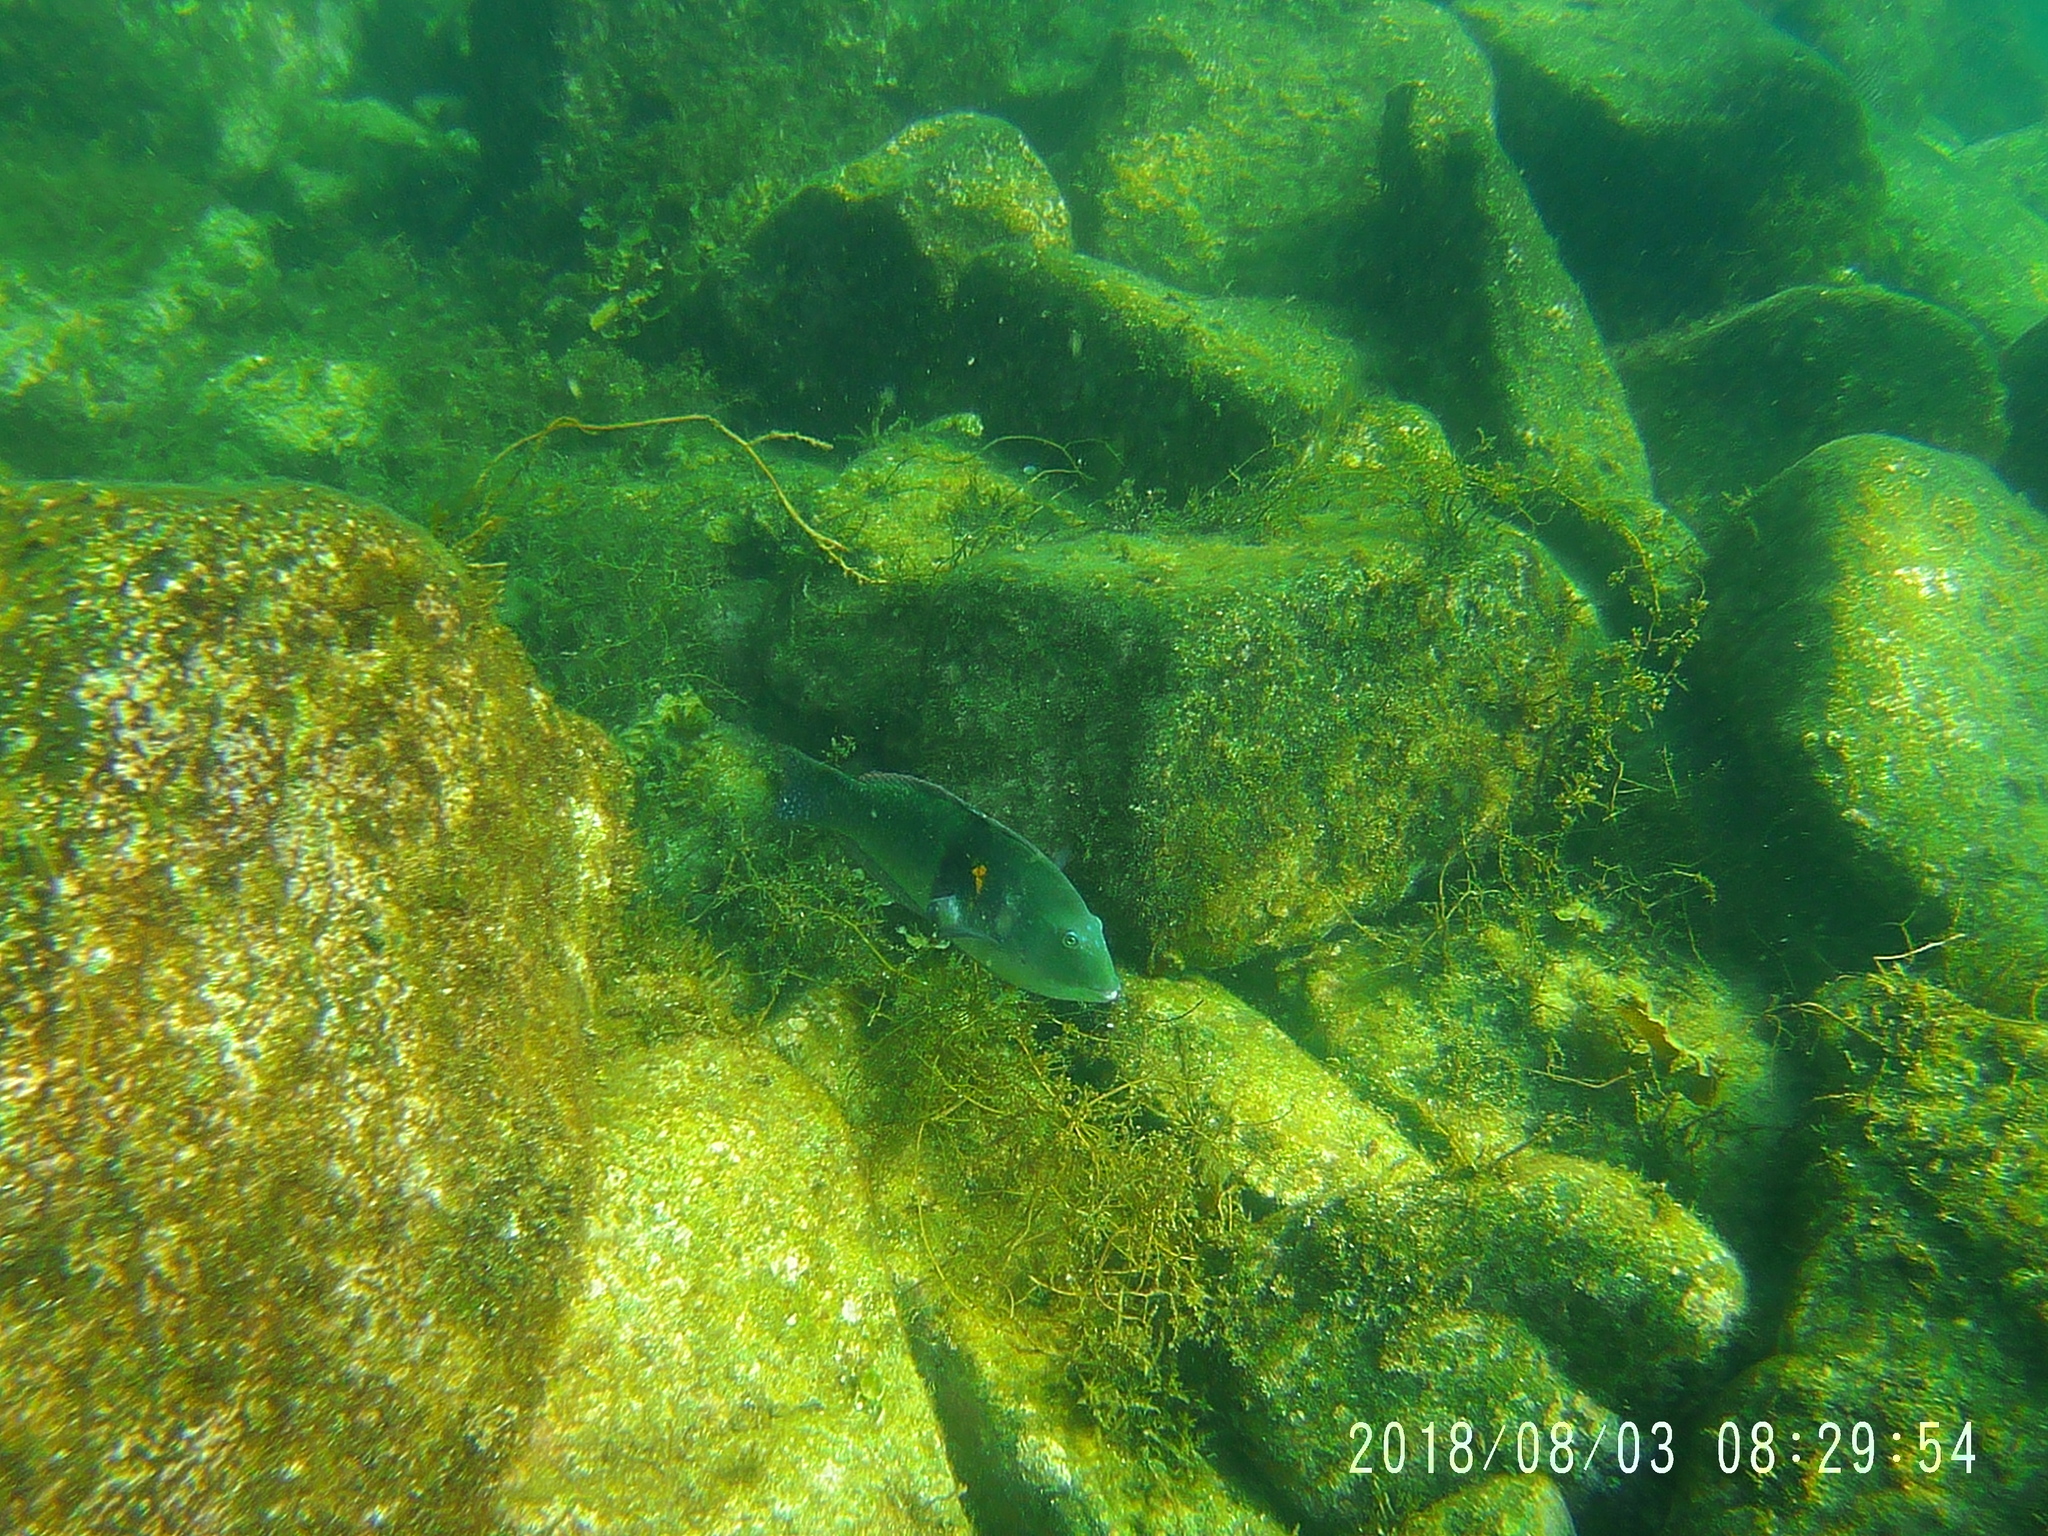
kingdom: Animalia
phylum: Chordata
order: Perciformes
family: Labridae
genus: Halichoeres
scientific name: Halichoeres nicholsi
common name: Spinster wrasse
